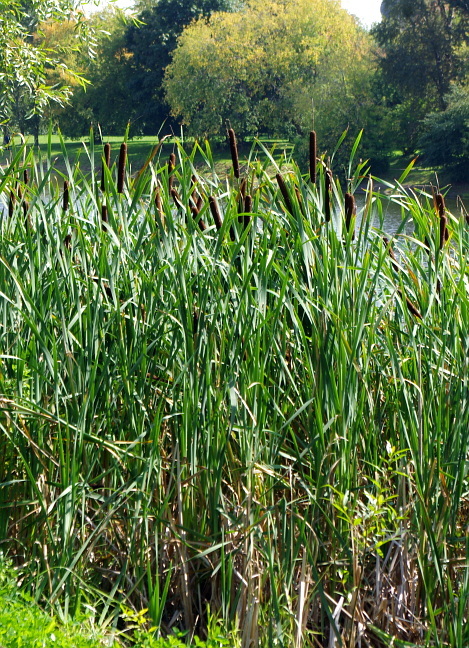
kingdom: Plantae
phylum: Tracheophyta
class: Liliopsida
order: Poales
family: Typhaceae
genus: Typha
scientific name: Typha latifolia
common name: Broadleaf cattail
